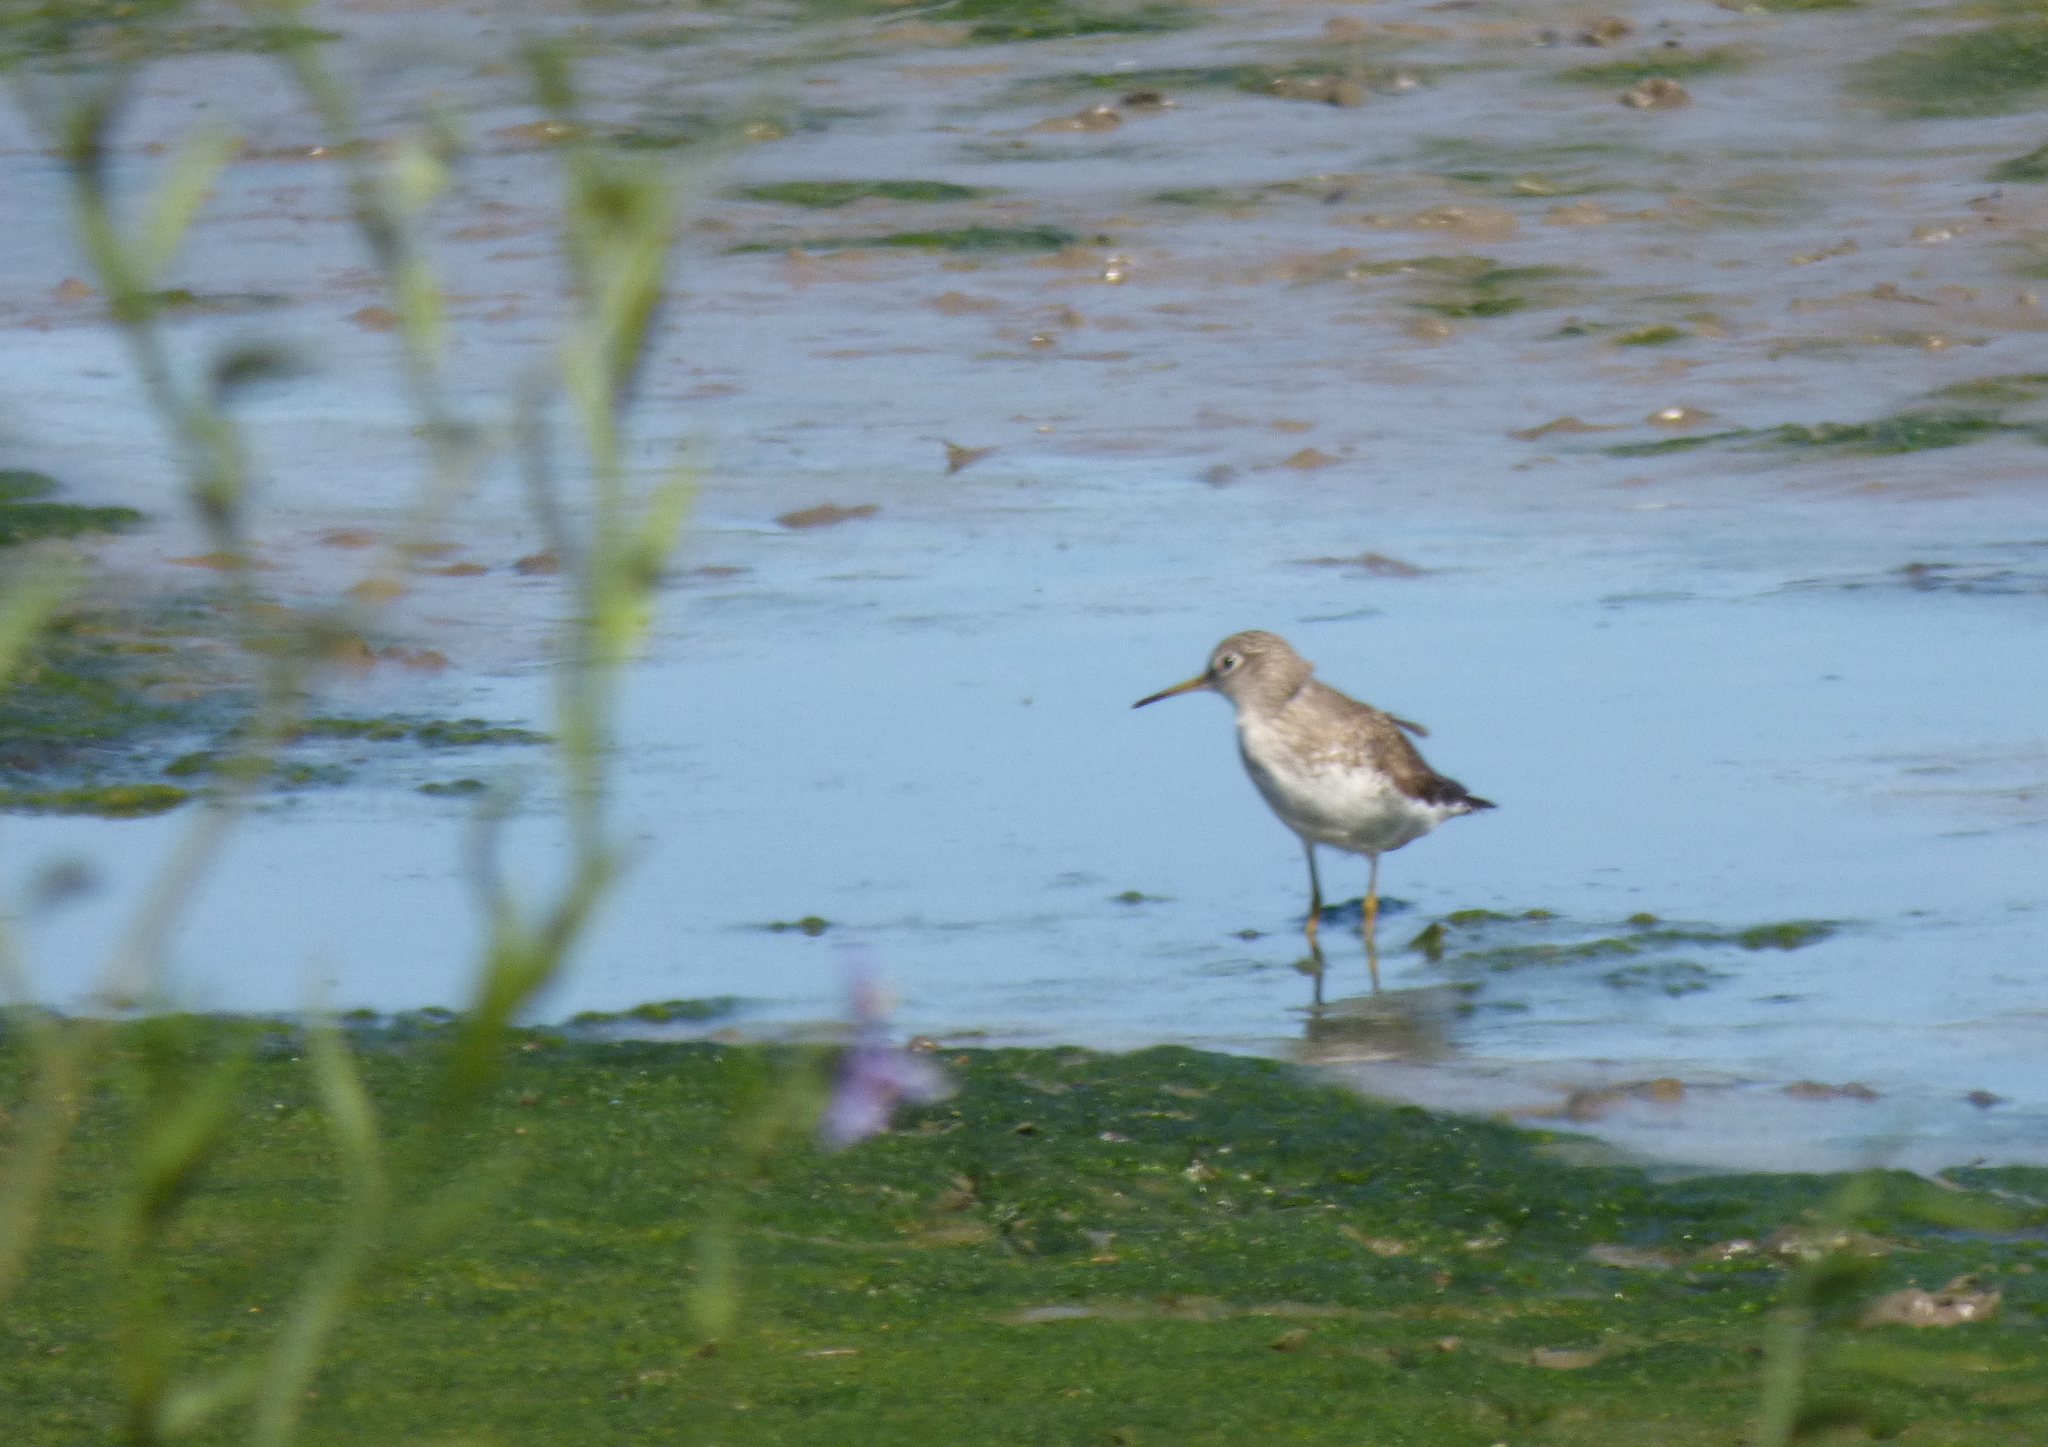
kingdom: Animalia
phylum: Chordata
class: Aves
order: Charadriiformes
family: Scolopacidae
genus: Tringa
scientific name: Tringa solitaria
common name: Solitary sandpiper
